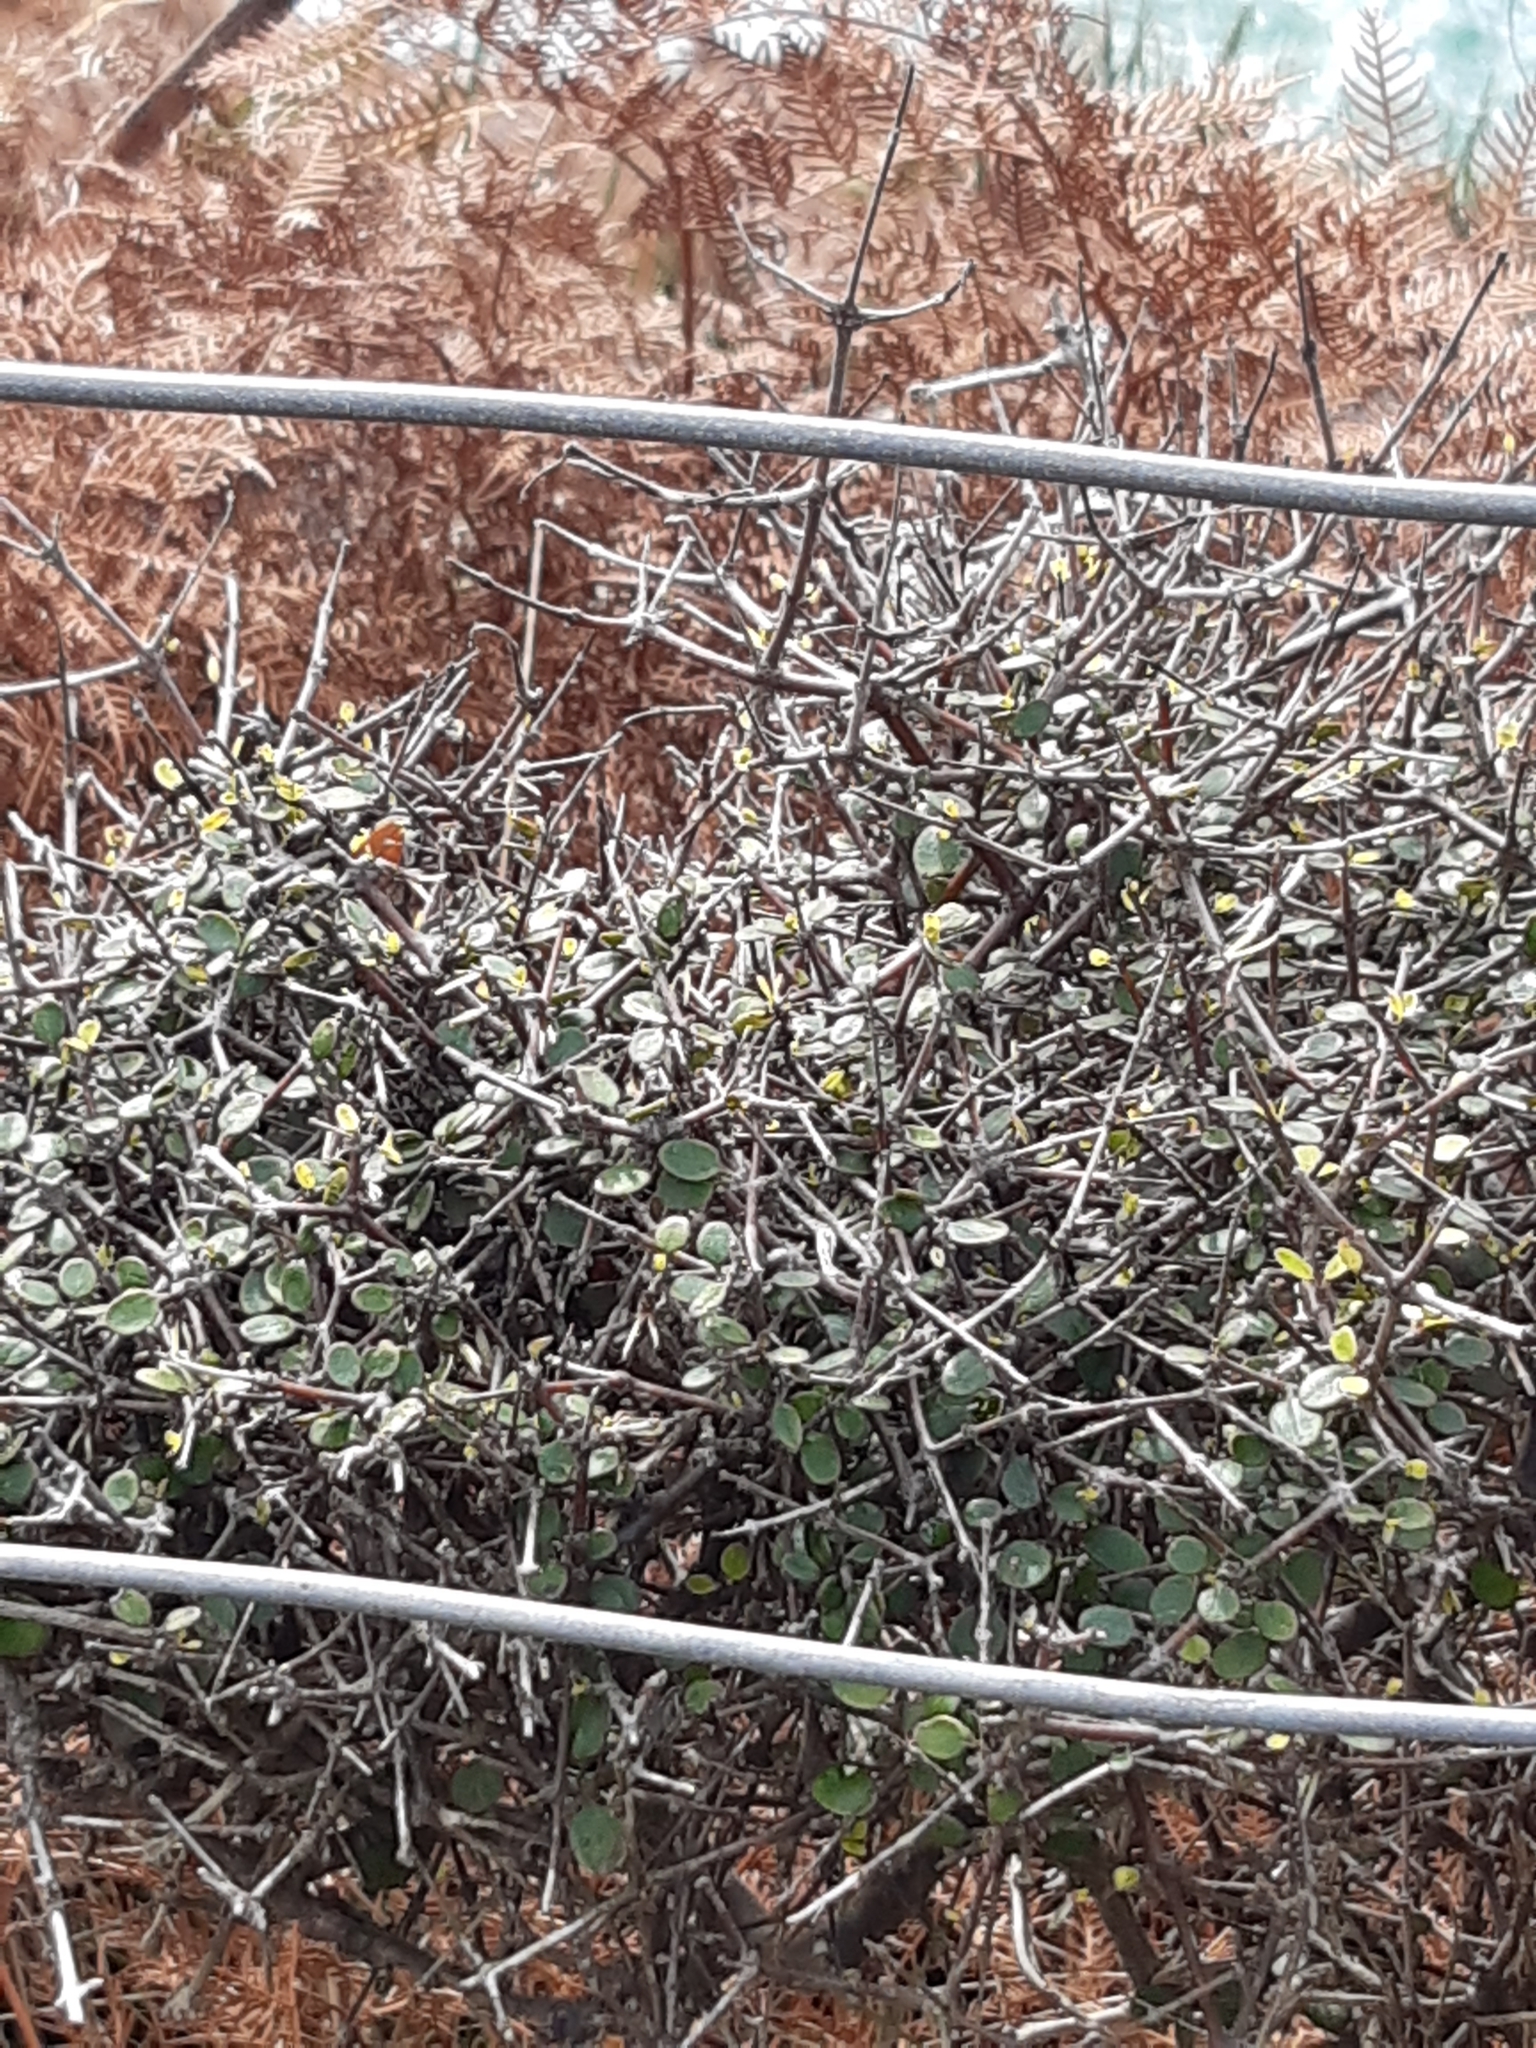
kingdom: Plantae
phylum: Tracheophyta
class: Magnoliopsida
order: Gentianales
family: Rubiaceae
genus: Coprosma
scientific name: Coprosma crassifolia
